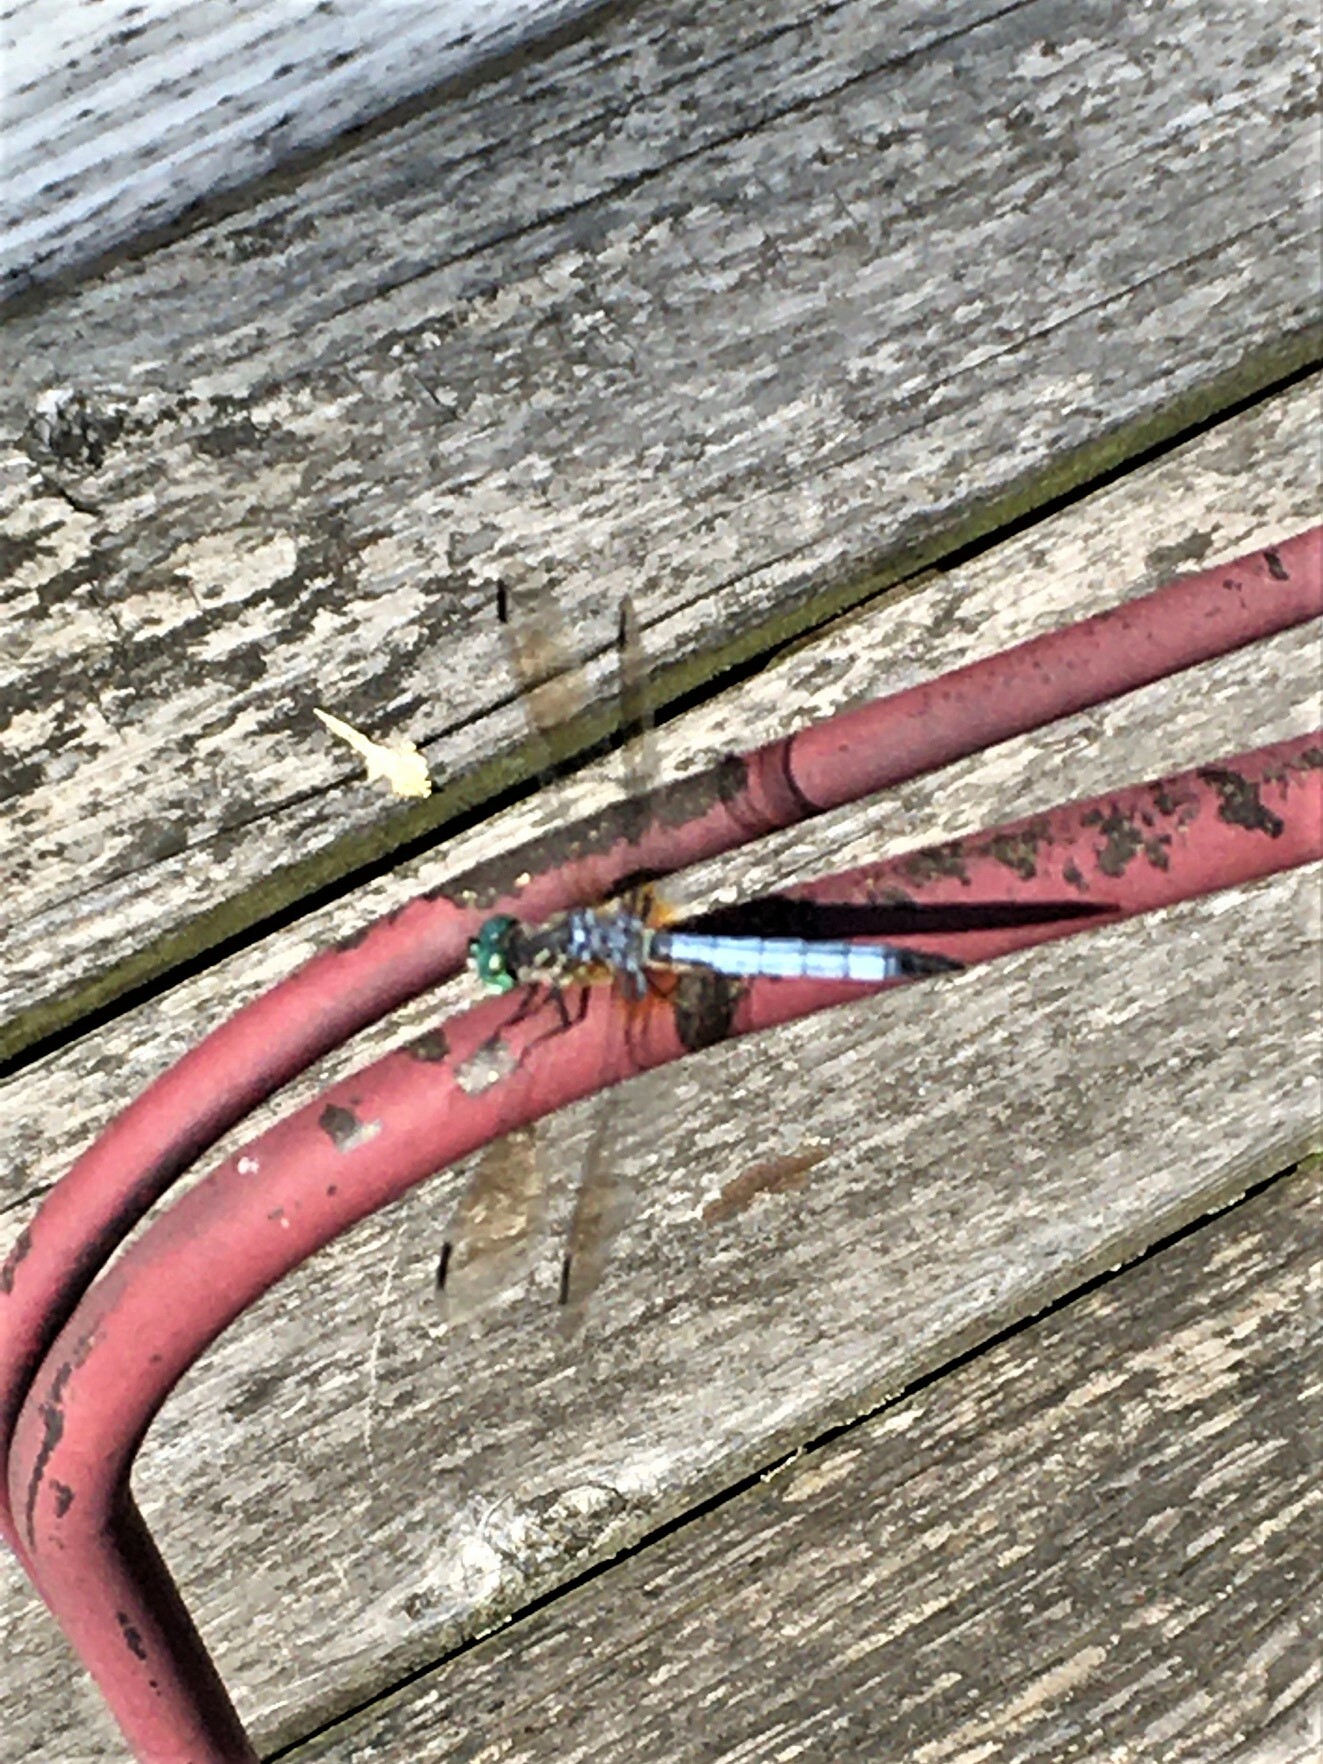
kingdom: Animalia
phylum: Arthropoda
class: Insecta
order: Odonata
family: Libellulidae
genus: Pachydiplax
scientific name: Pachydiplax longipennis
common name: Blue dasher
